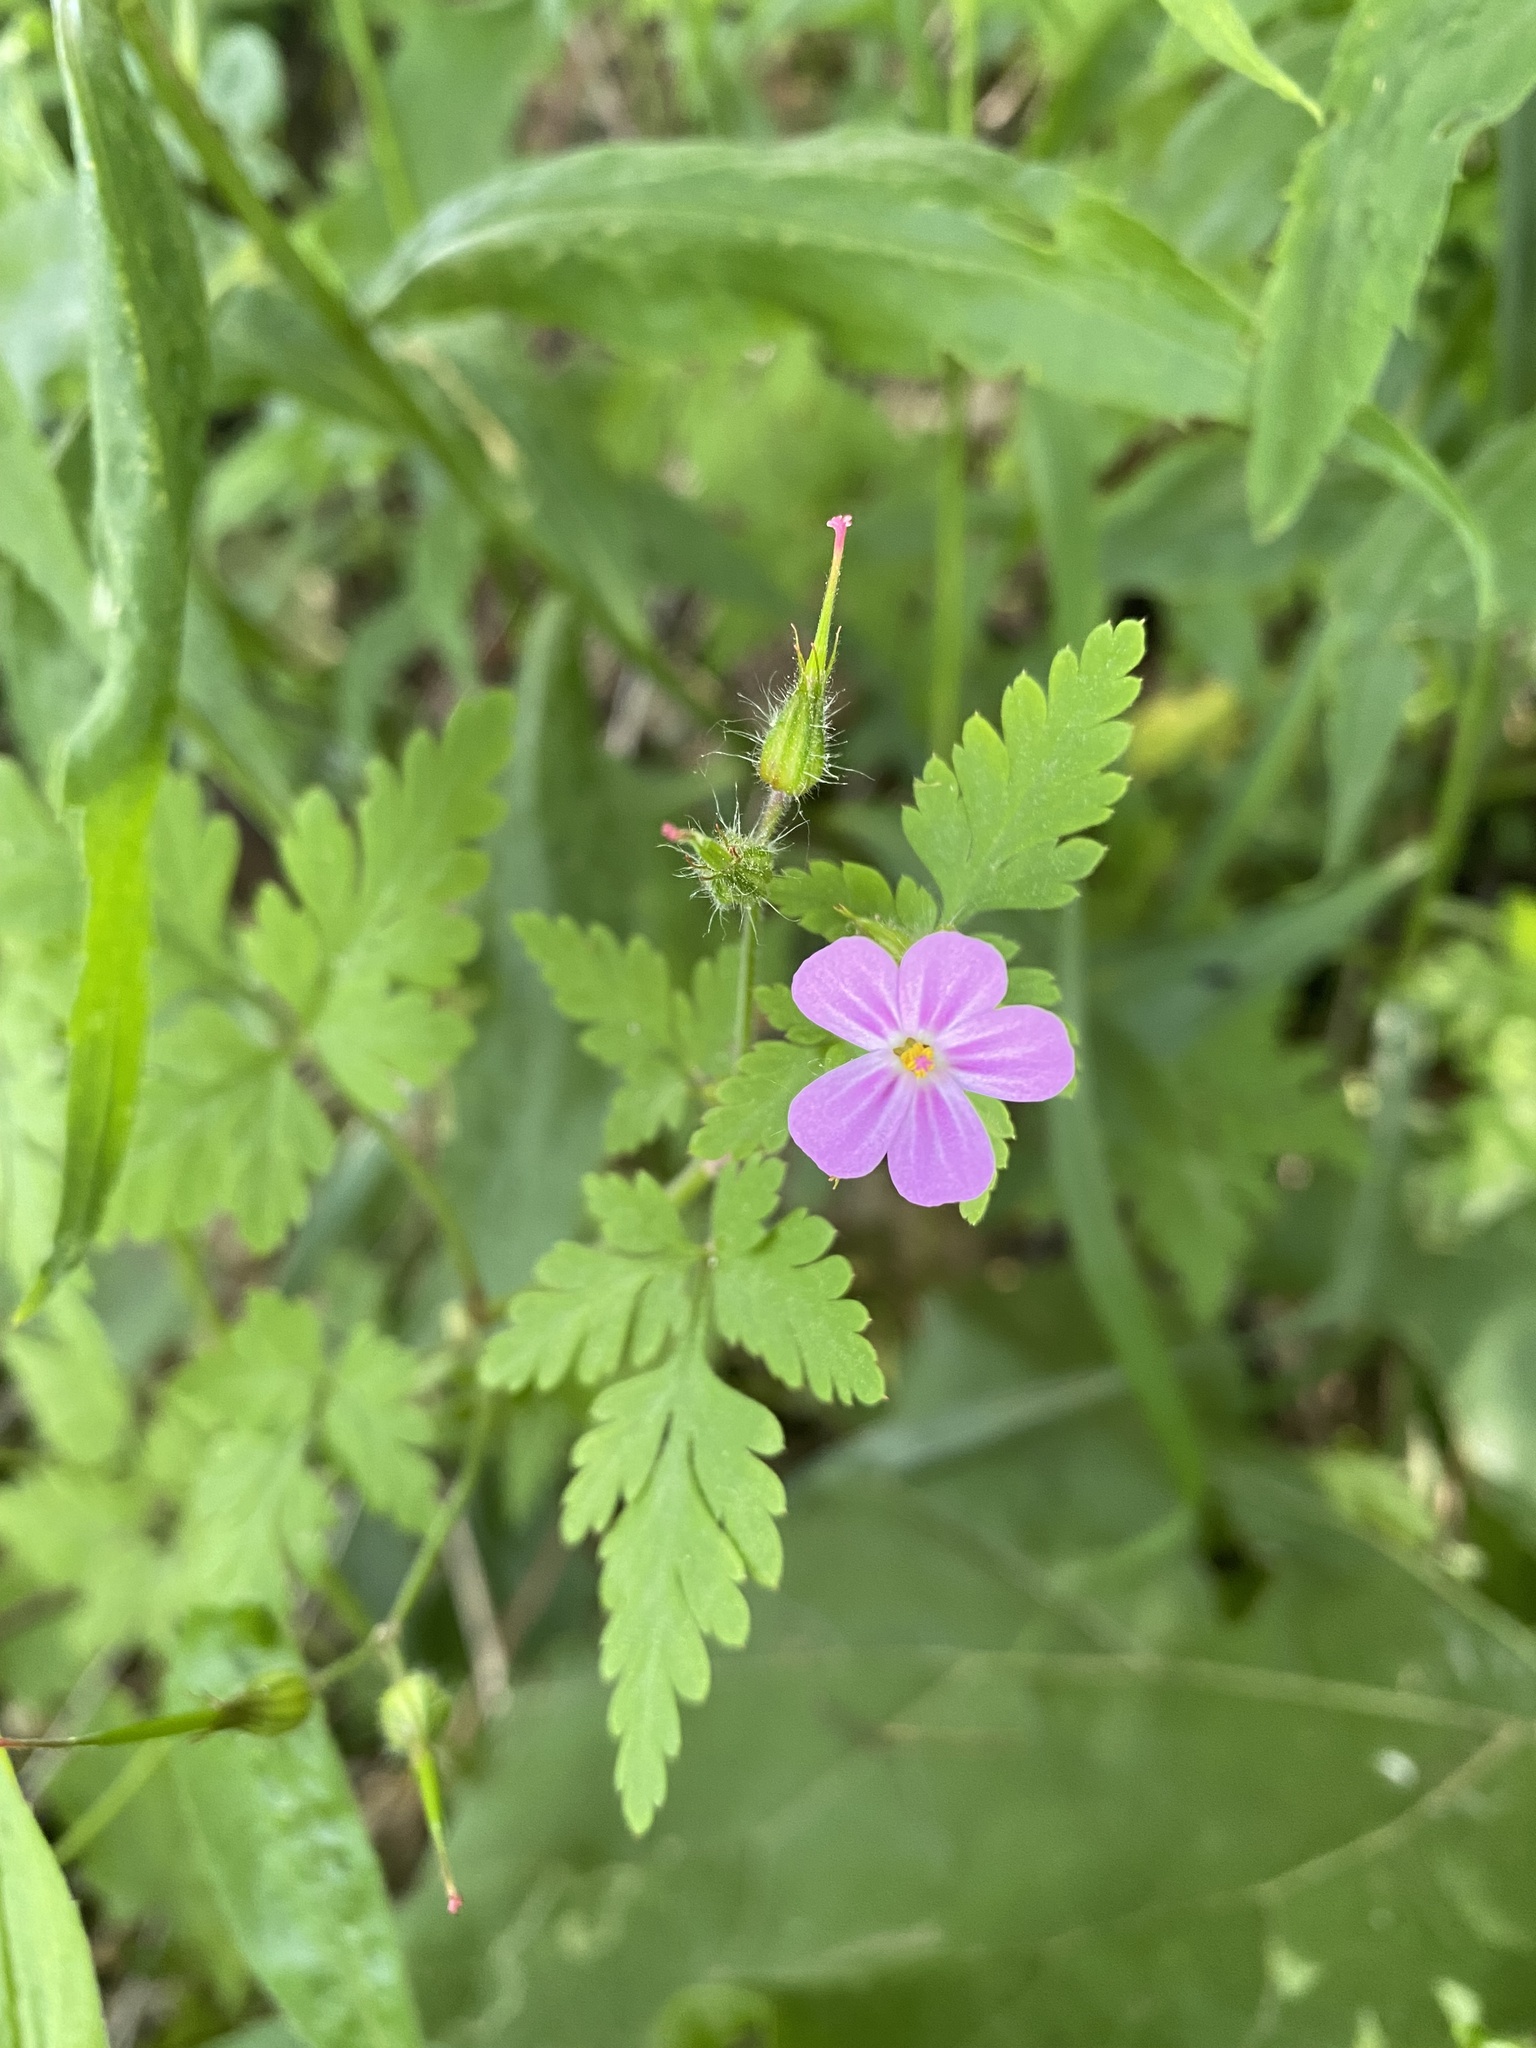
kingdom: Plantae
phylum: Tracheophyta
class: Magnoliopsida
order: Geraniales
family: Geraniaceae
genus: Geranium
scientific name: Geranium robertianum
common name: Herb-robert
